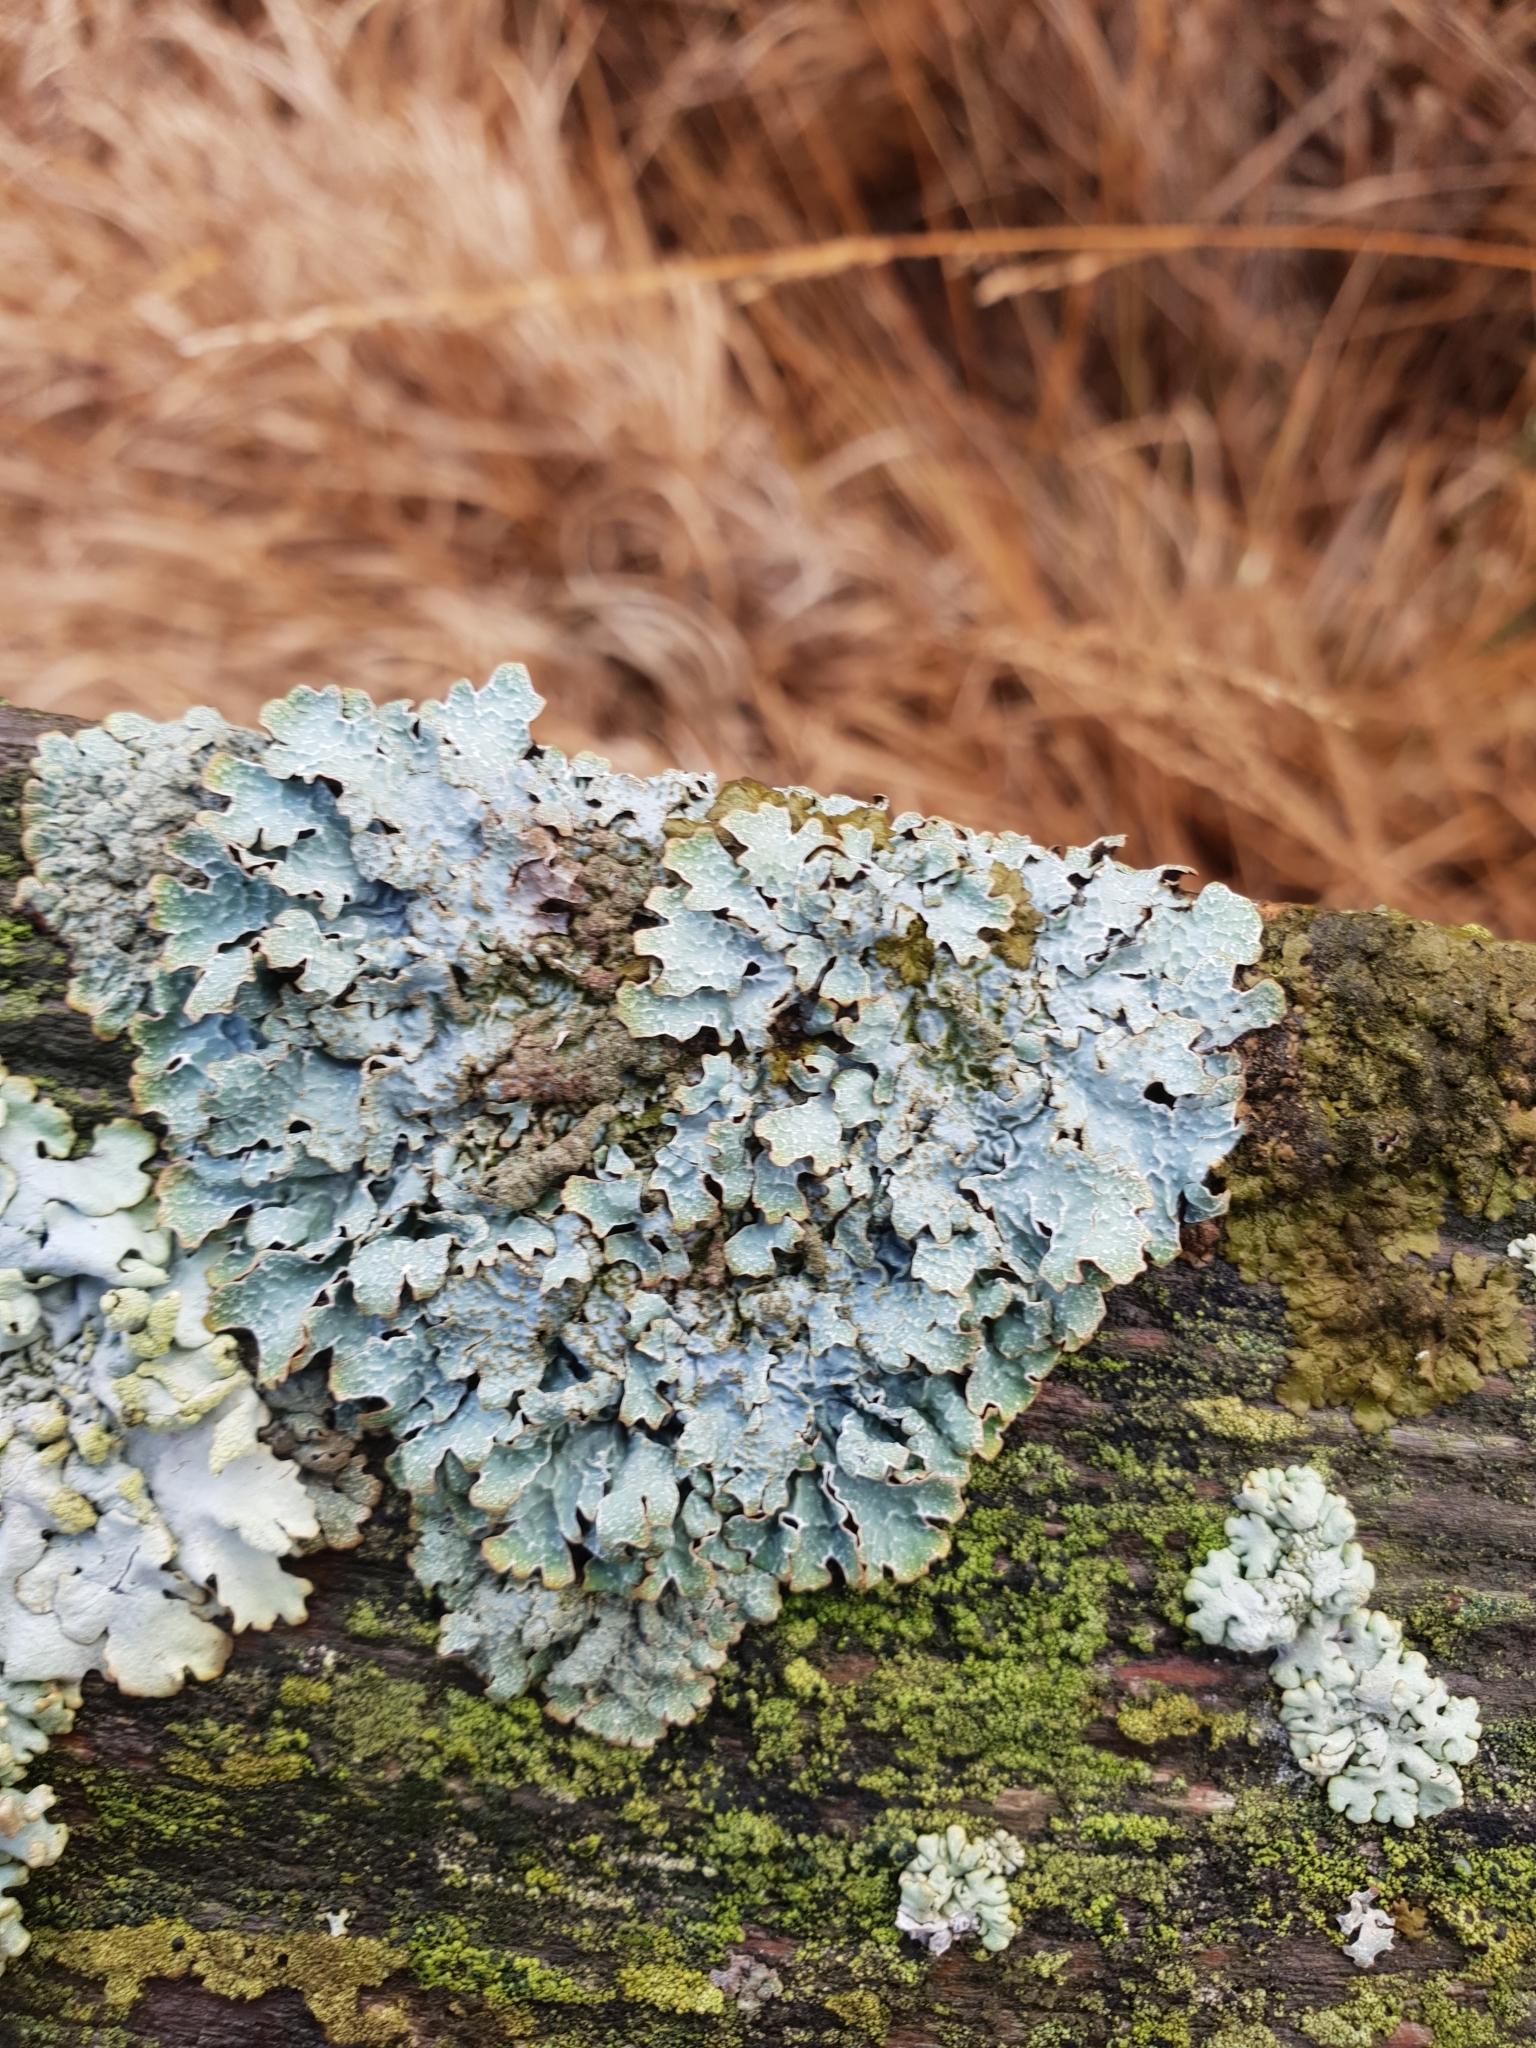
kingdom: Fungi
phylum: Ascomycota
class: Lecanoromycetes
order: Lecanorales
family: Parmeliaceae
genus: Parmelia
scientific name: Parmelia sulcata
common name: Netted shield lichen
